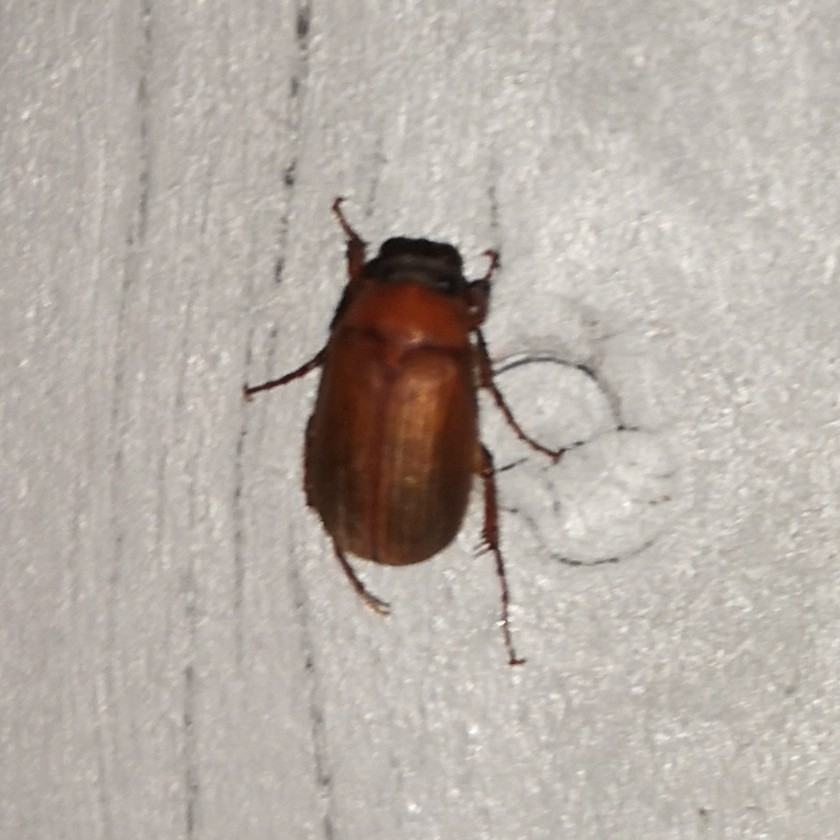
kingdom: Animalia
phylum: Arthropoda
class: Insecta
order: Coleoptera
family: Scarabaeidae
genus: Serica
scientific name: Serica brunnea
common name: Brown chafer
